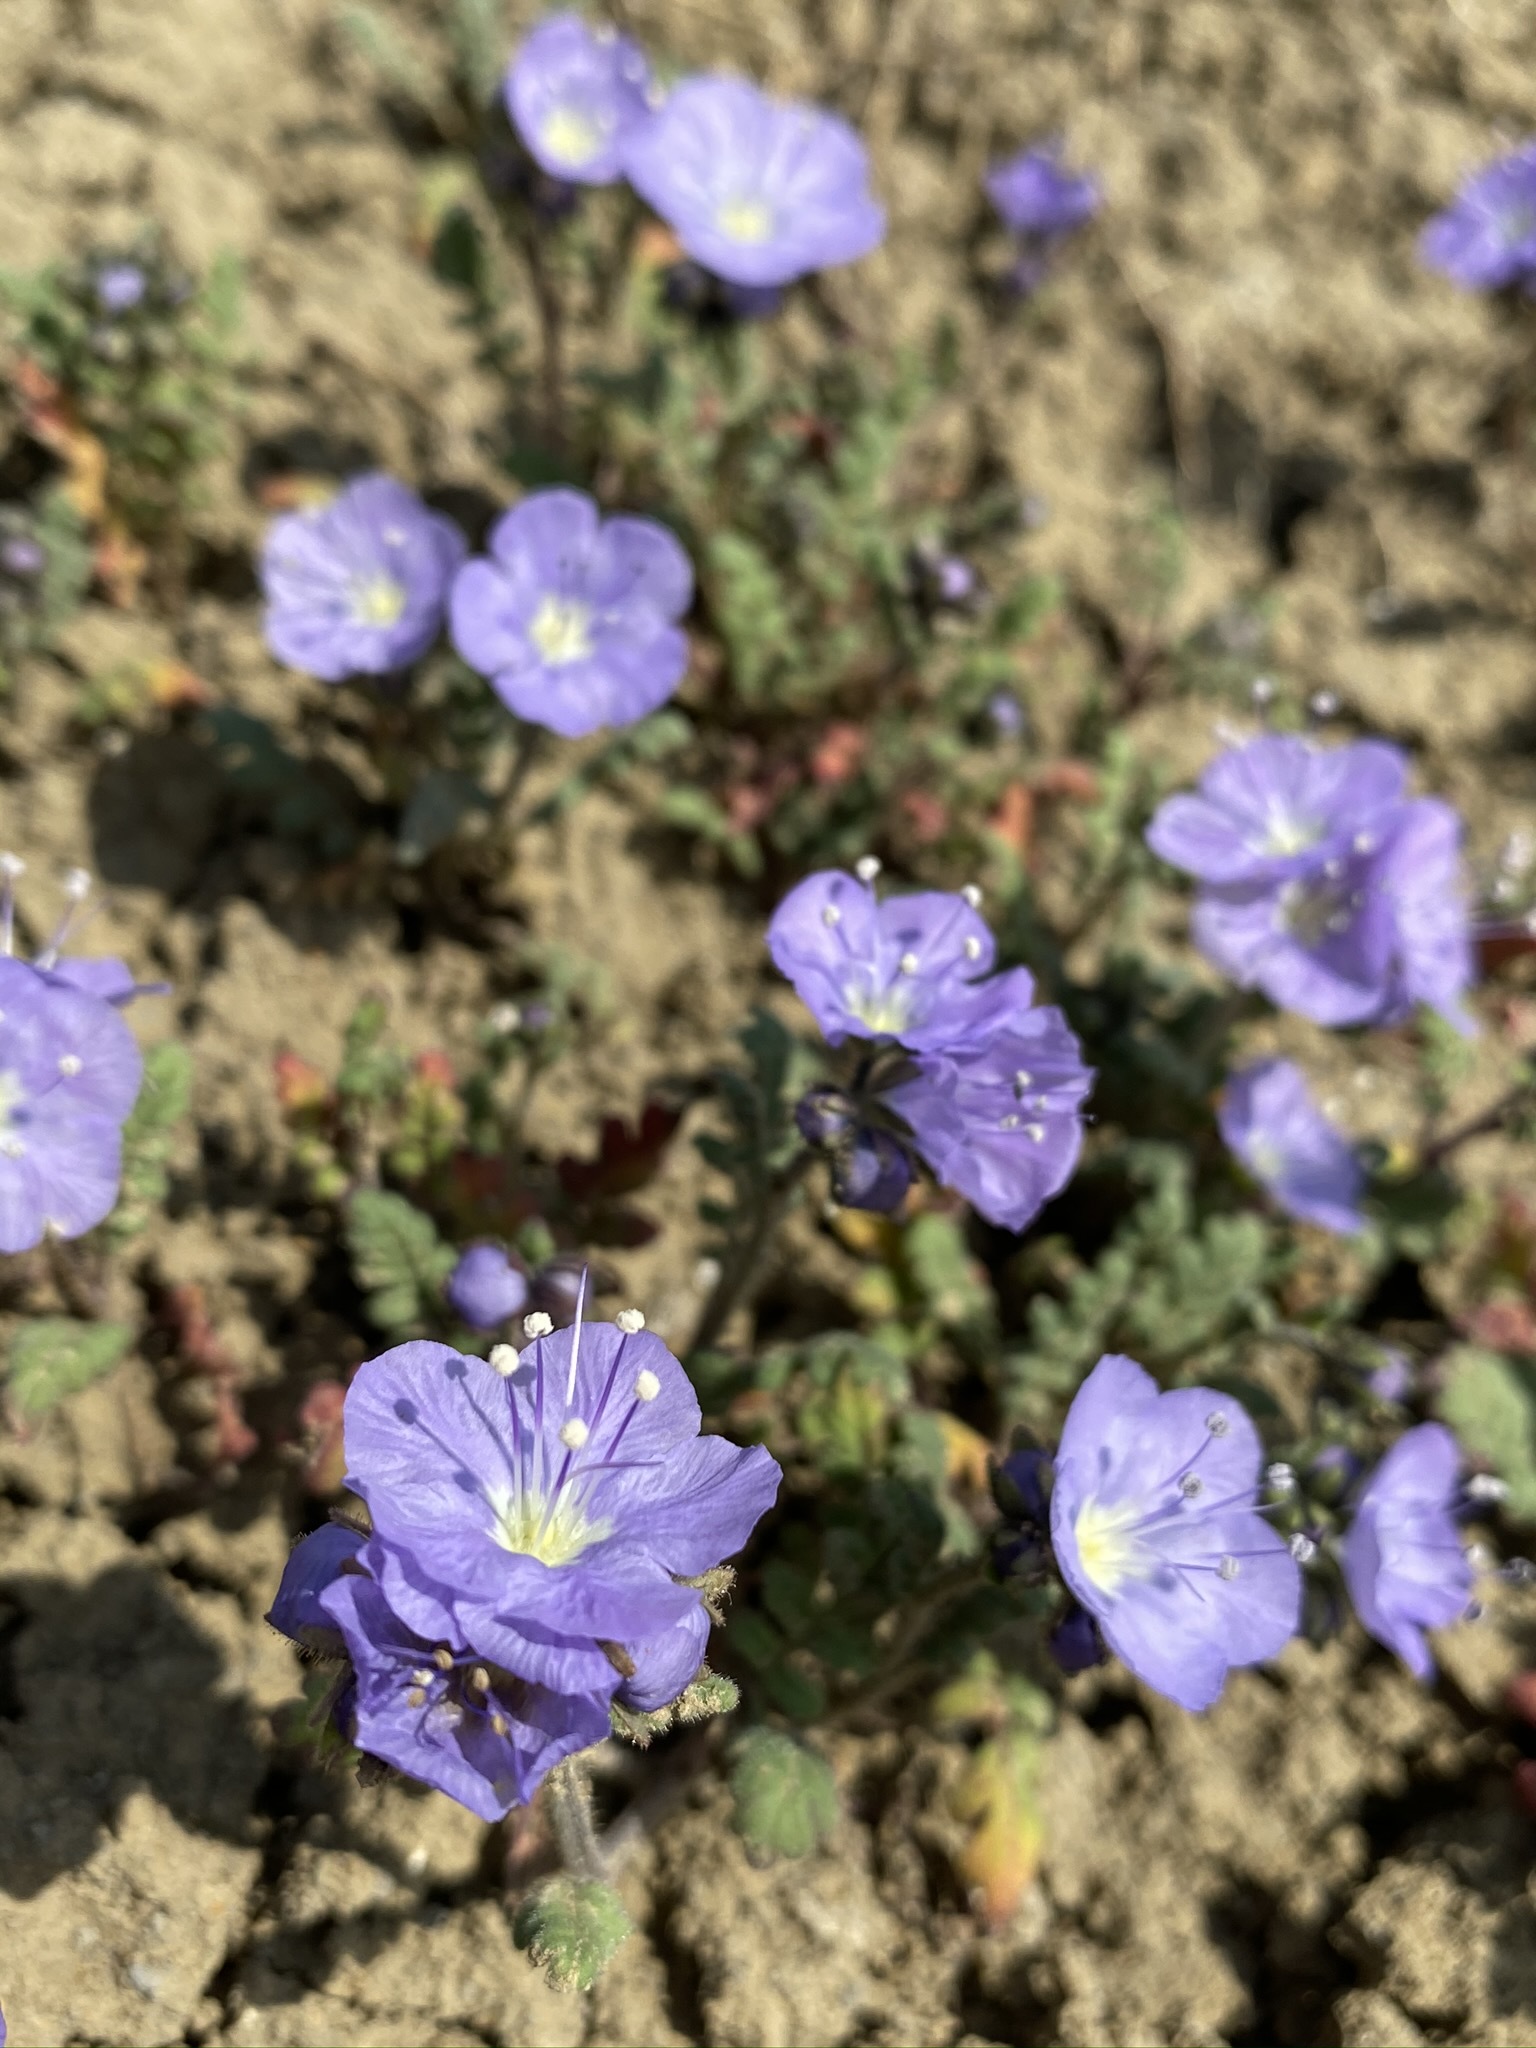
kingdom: Plantae
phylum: Tracheophyta
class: Magnoliopsida
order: Boraginales
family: Hydrophyllaceae
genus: Phacelia
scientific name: Phacelia ciliata
